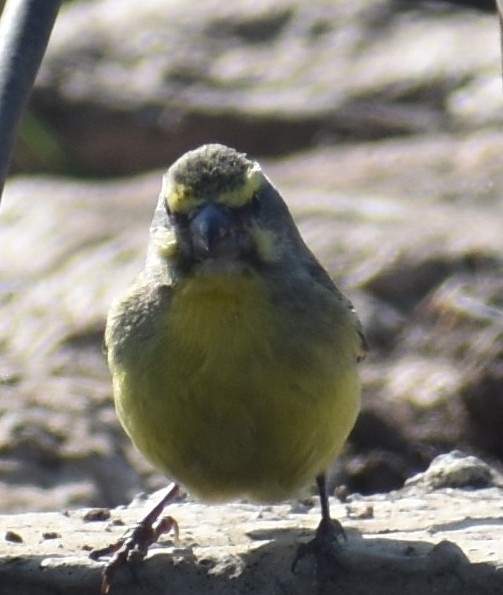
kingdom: Animalia
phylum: Chordata
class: Aves
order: Passeriformes
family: Fringillidae
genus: Crithagra
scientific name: Crithagra mozambica
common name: Yellow-fronted canary
